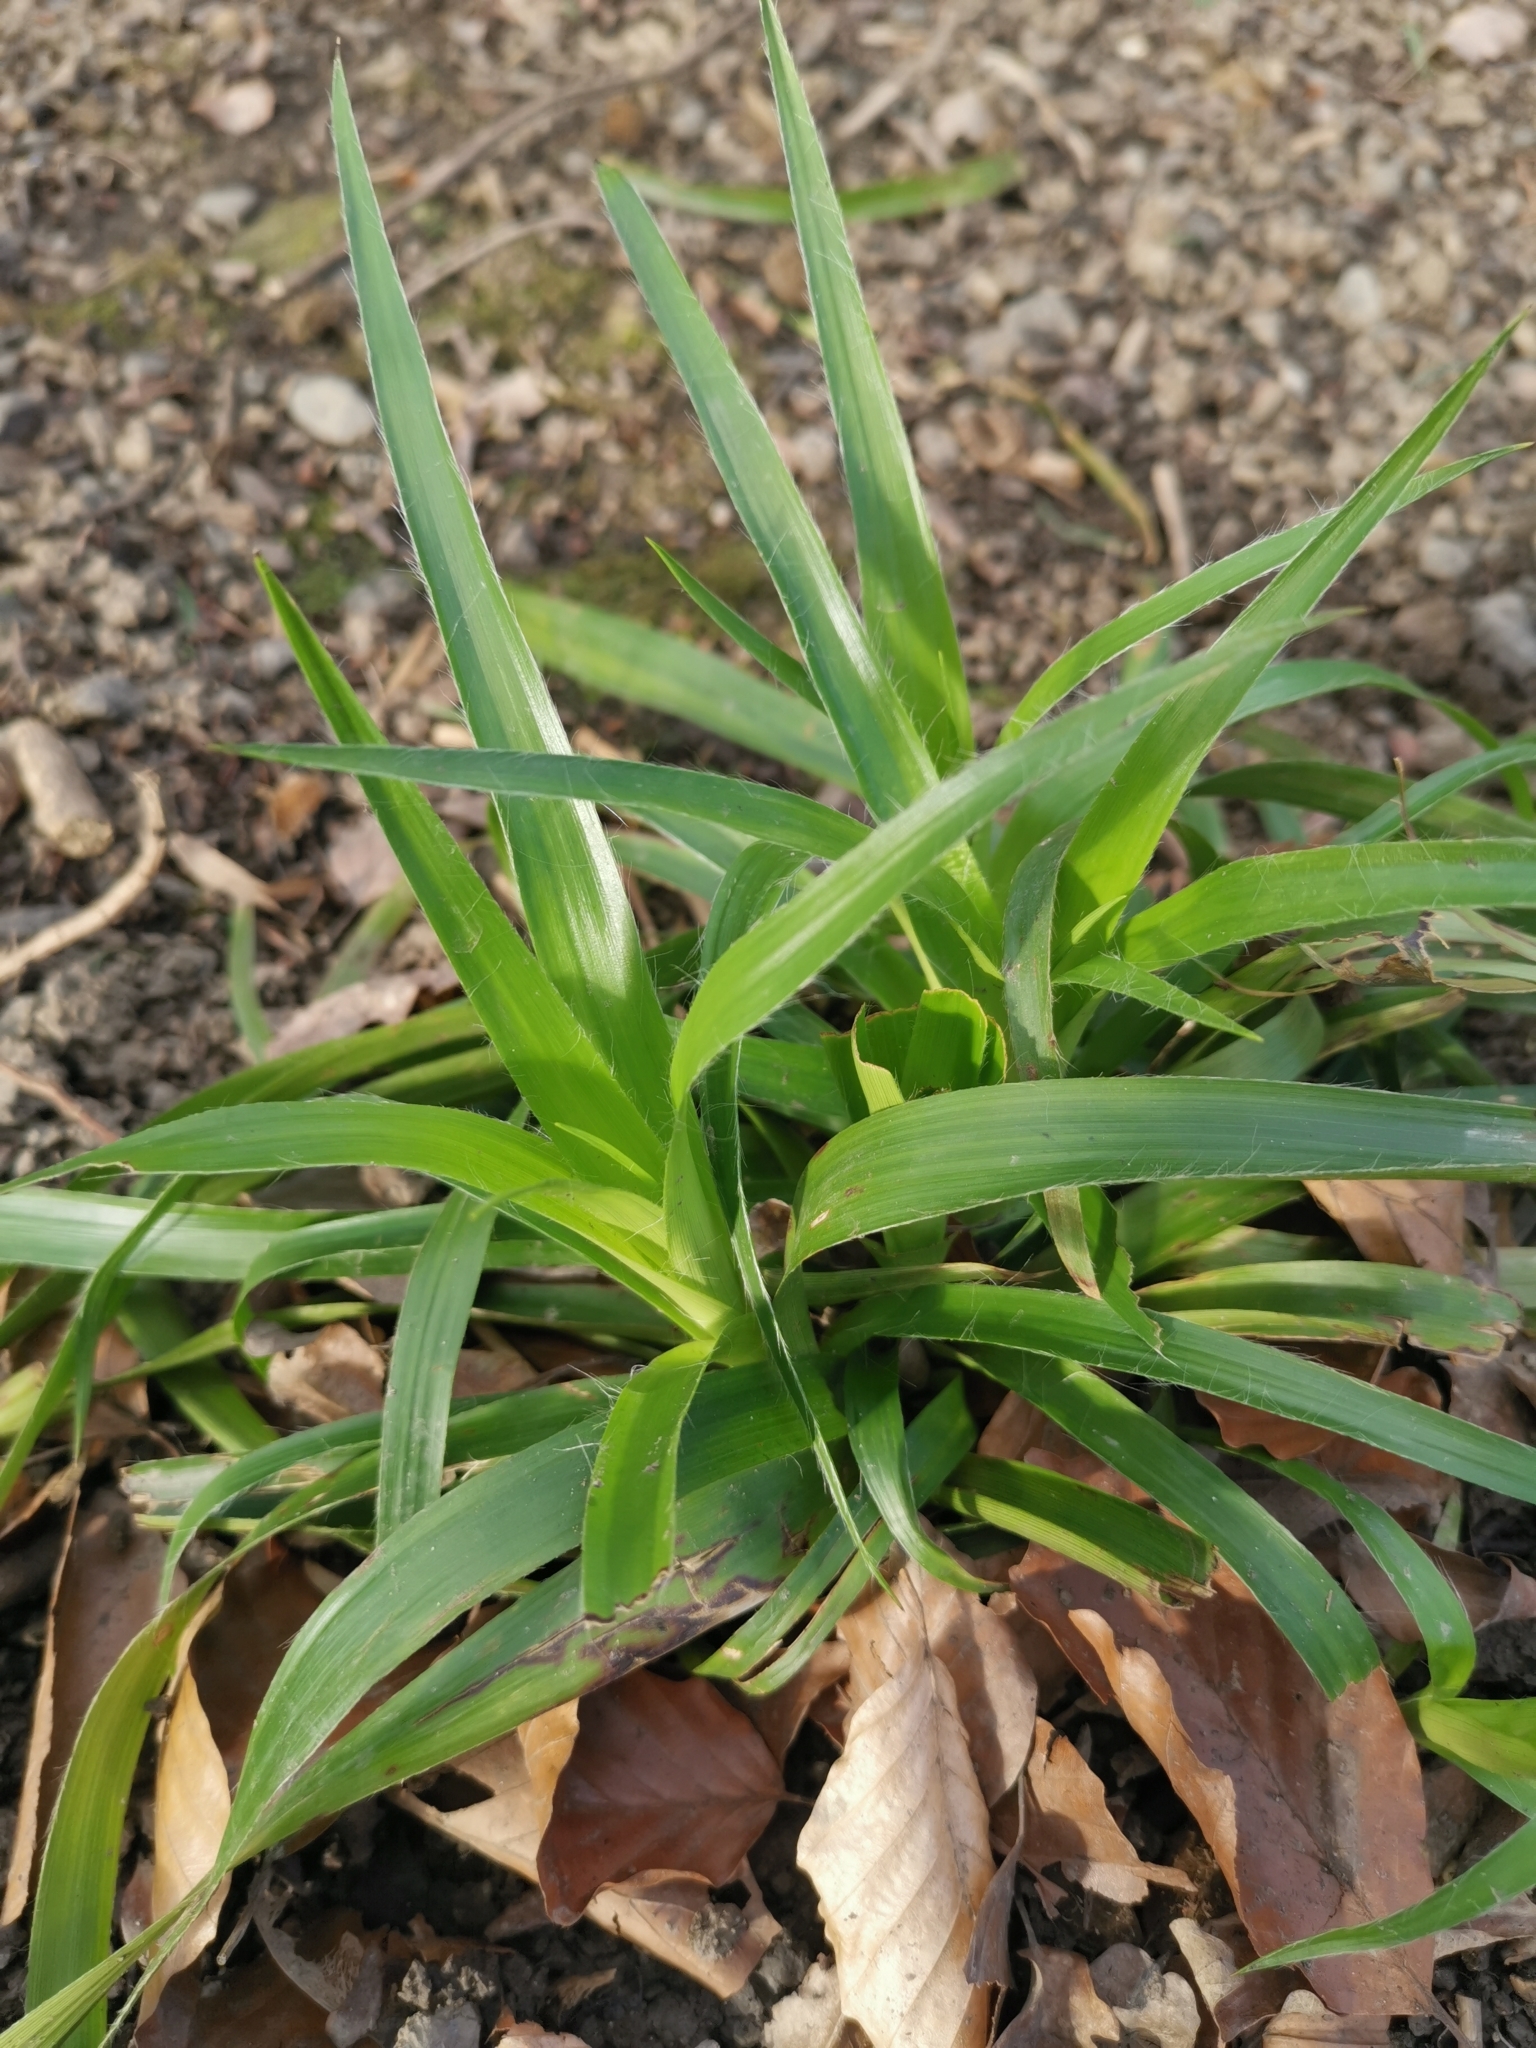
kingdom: Plantae
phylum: Tracheophyta
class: Liliopsida
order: Poales
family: Juncaceae
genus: Luzula
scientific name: Luzula sylvatica
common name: Great wood-rush
